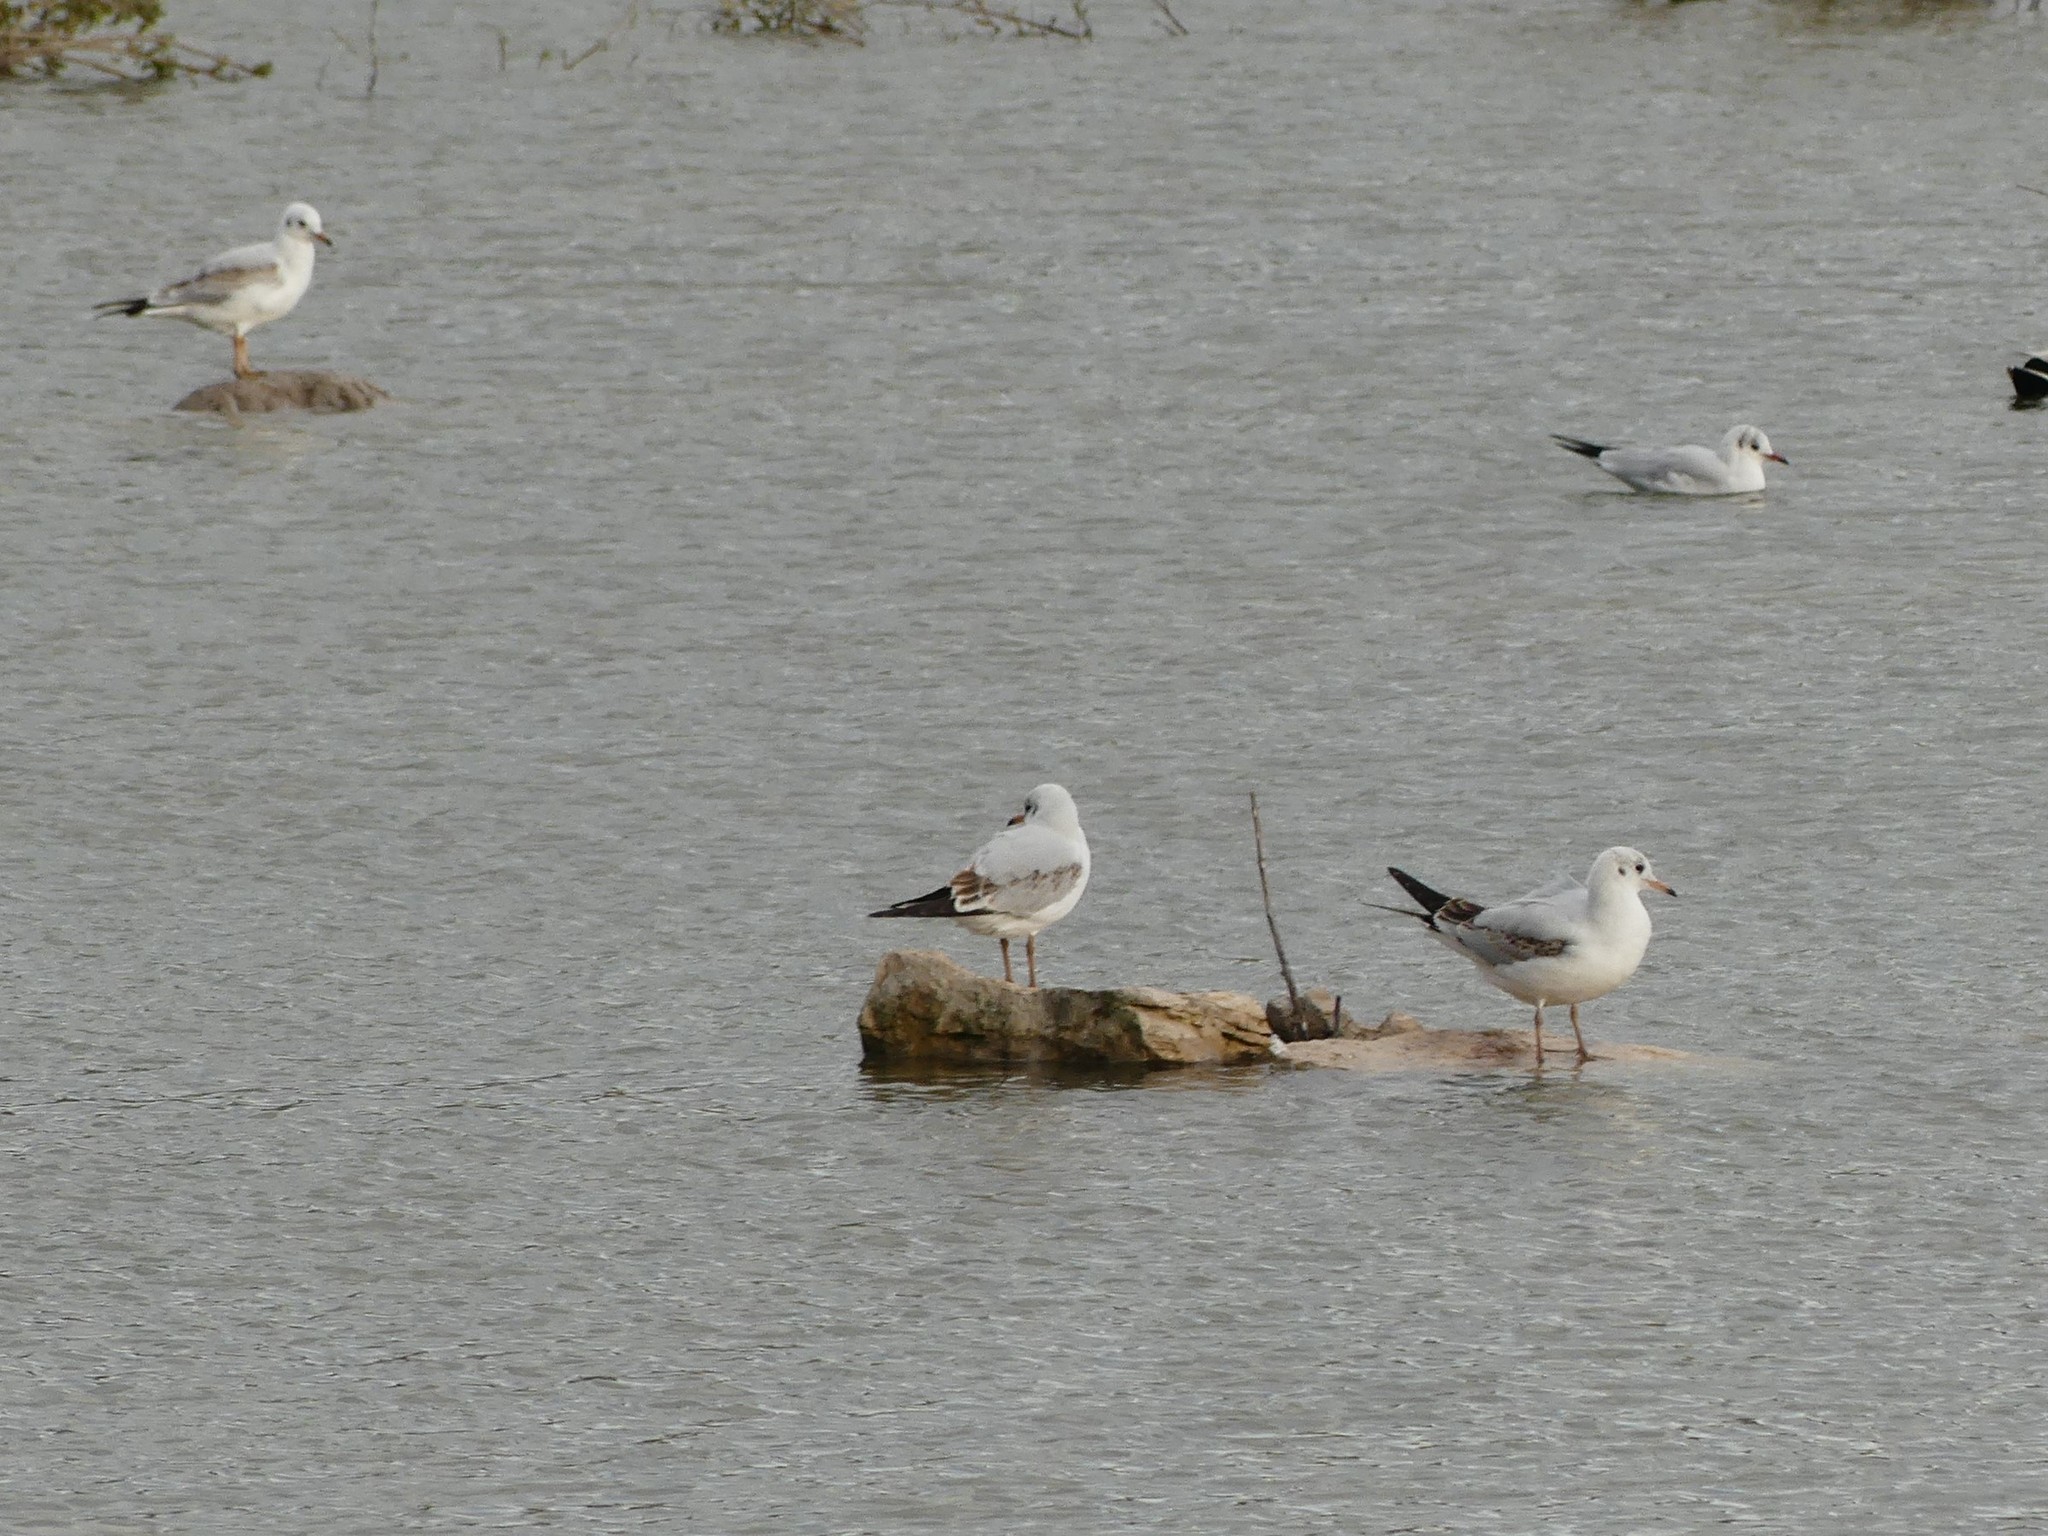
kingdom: Animalia
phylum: Chordata
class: Aves
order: Charadriiformes
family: Laridae
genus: Chroicocephalus
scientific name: Chroicocephalus ridibundus
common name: Black-headed gull
